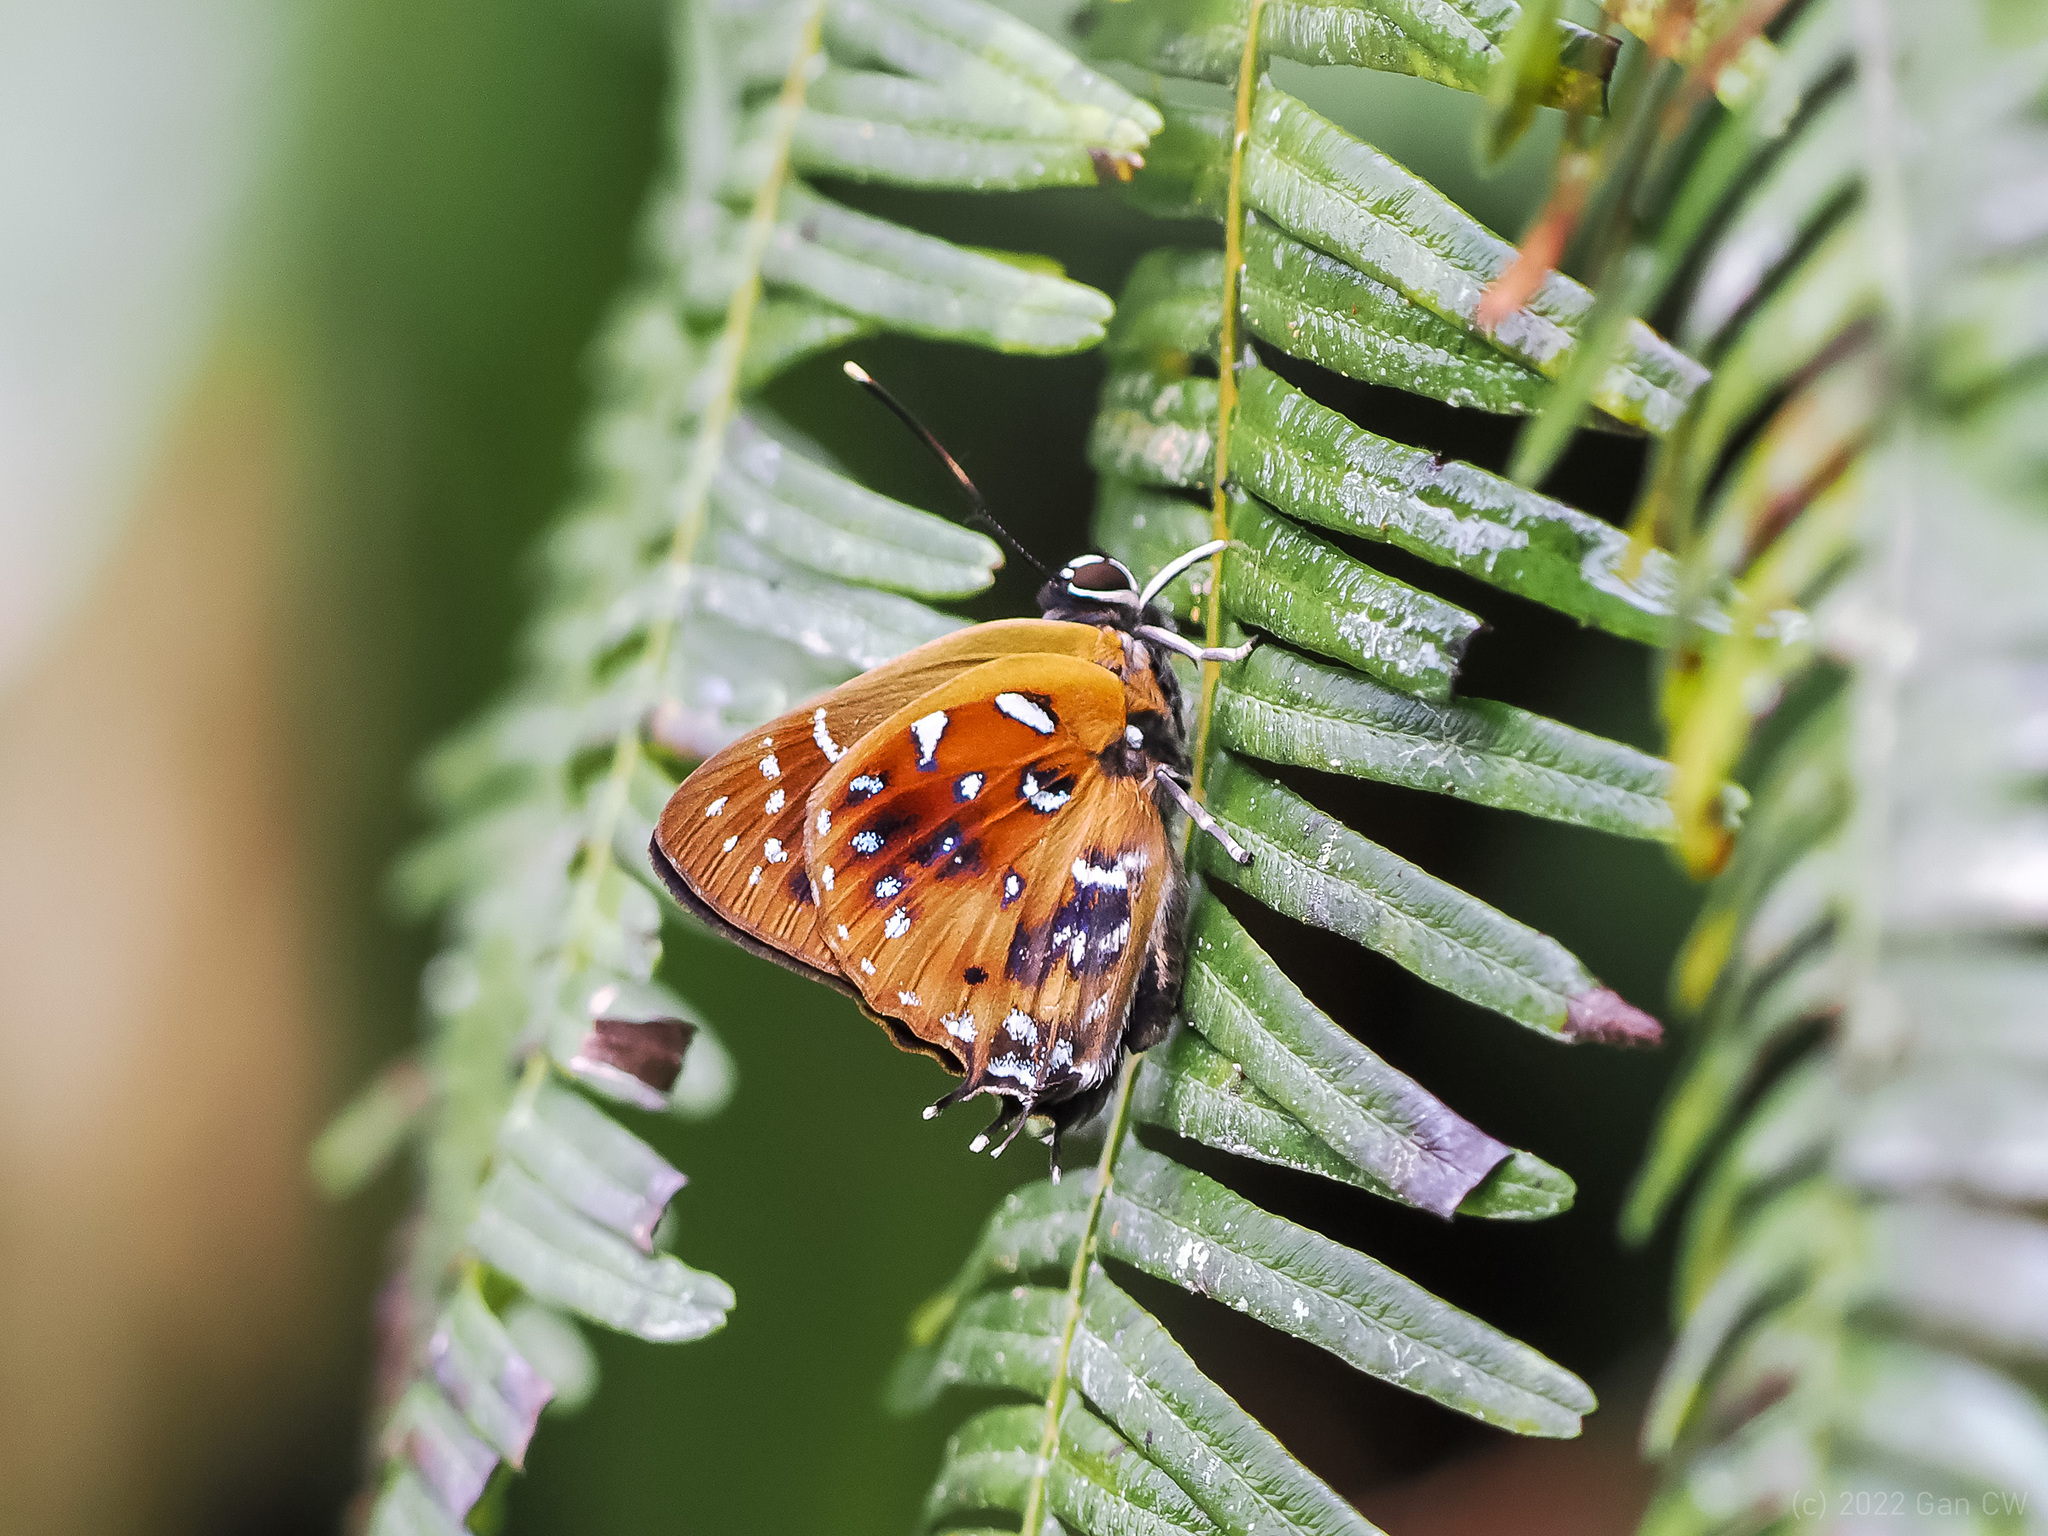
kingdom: Animalia
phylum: Arthropoda
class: Insecta
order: Lepidoptera
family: Lycaenidae
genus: Iraota
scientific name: Iraota
